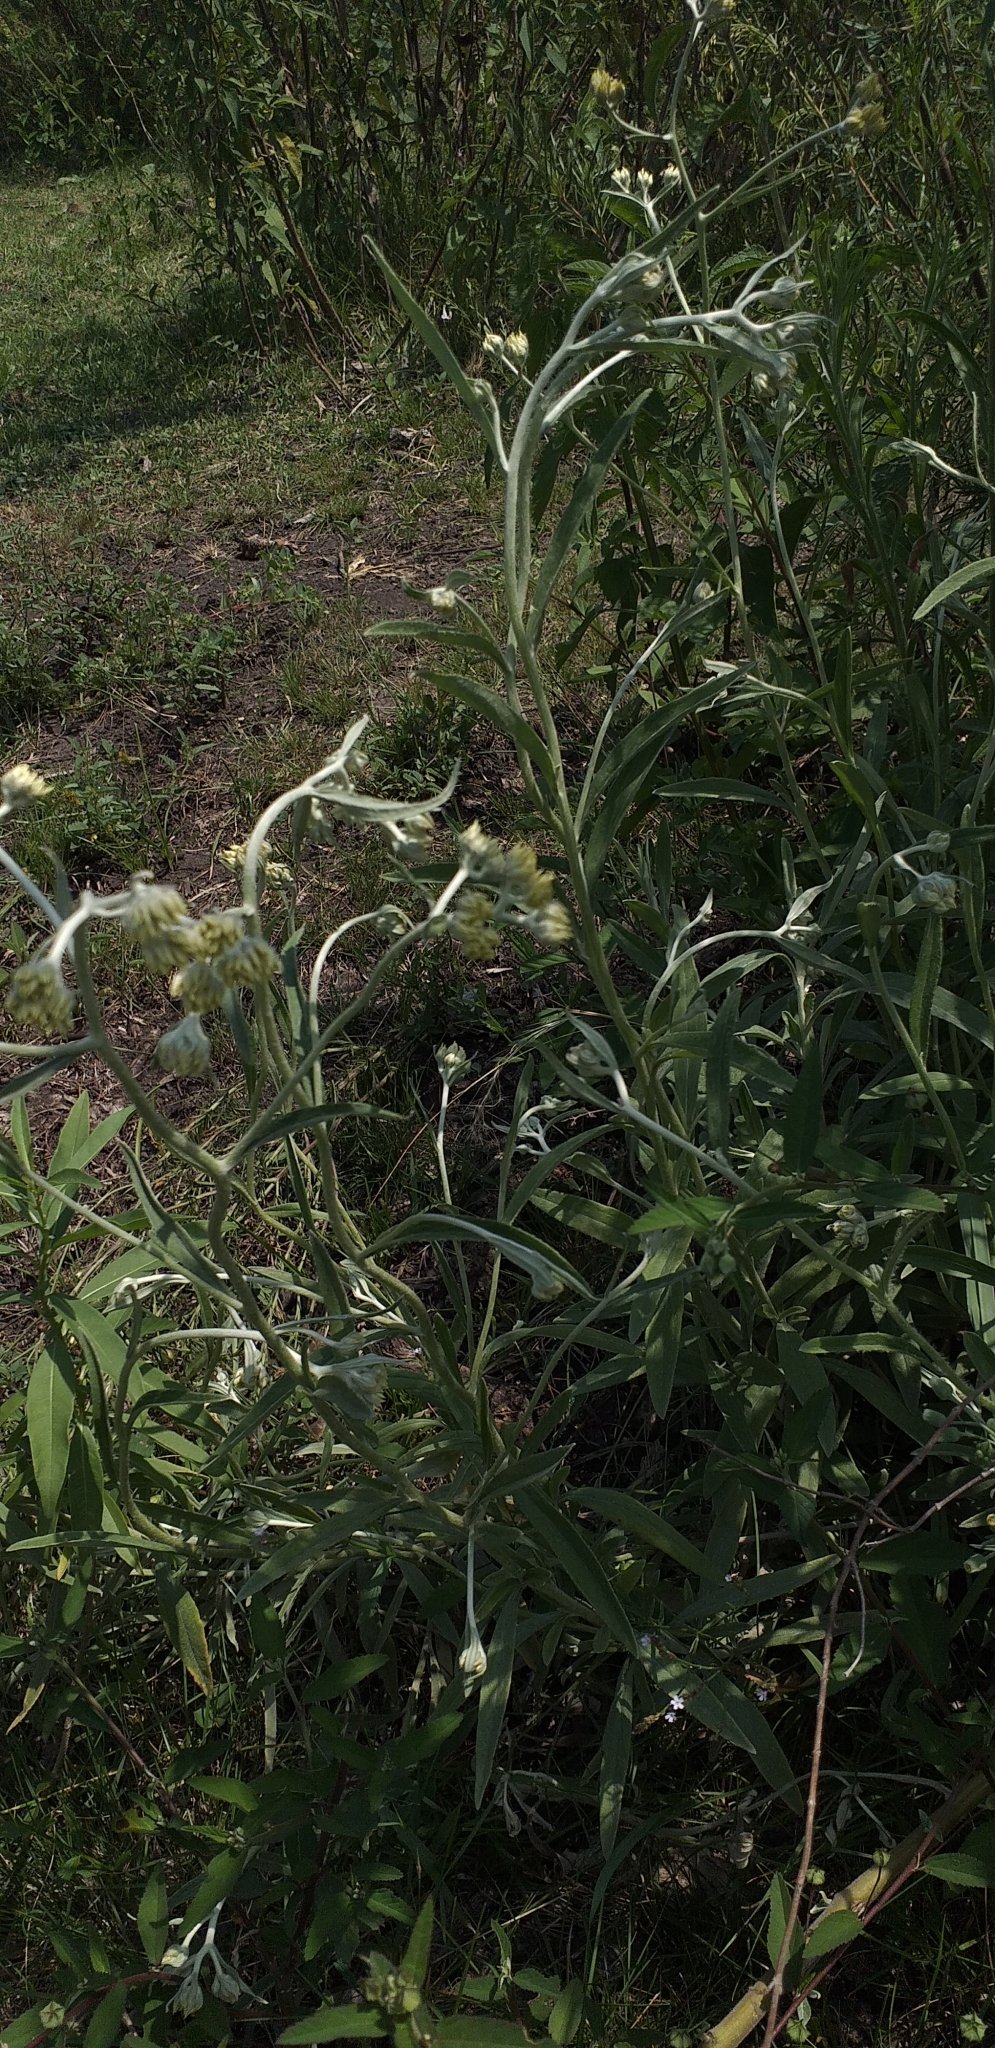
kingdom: Plantae
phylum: Tracheophyta
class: Magnoliopsida
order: Asterales
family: Asteraceae
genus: Achyrocline
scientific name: Achyrocline satureioides
